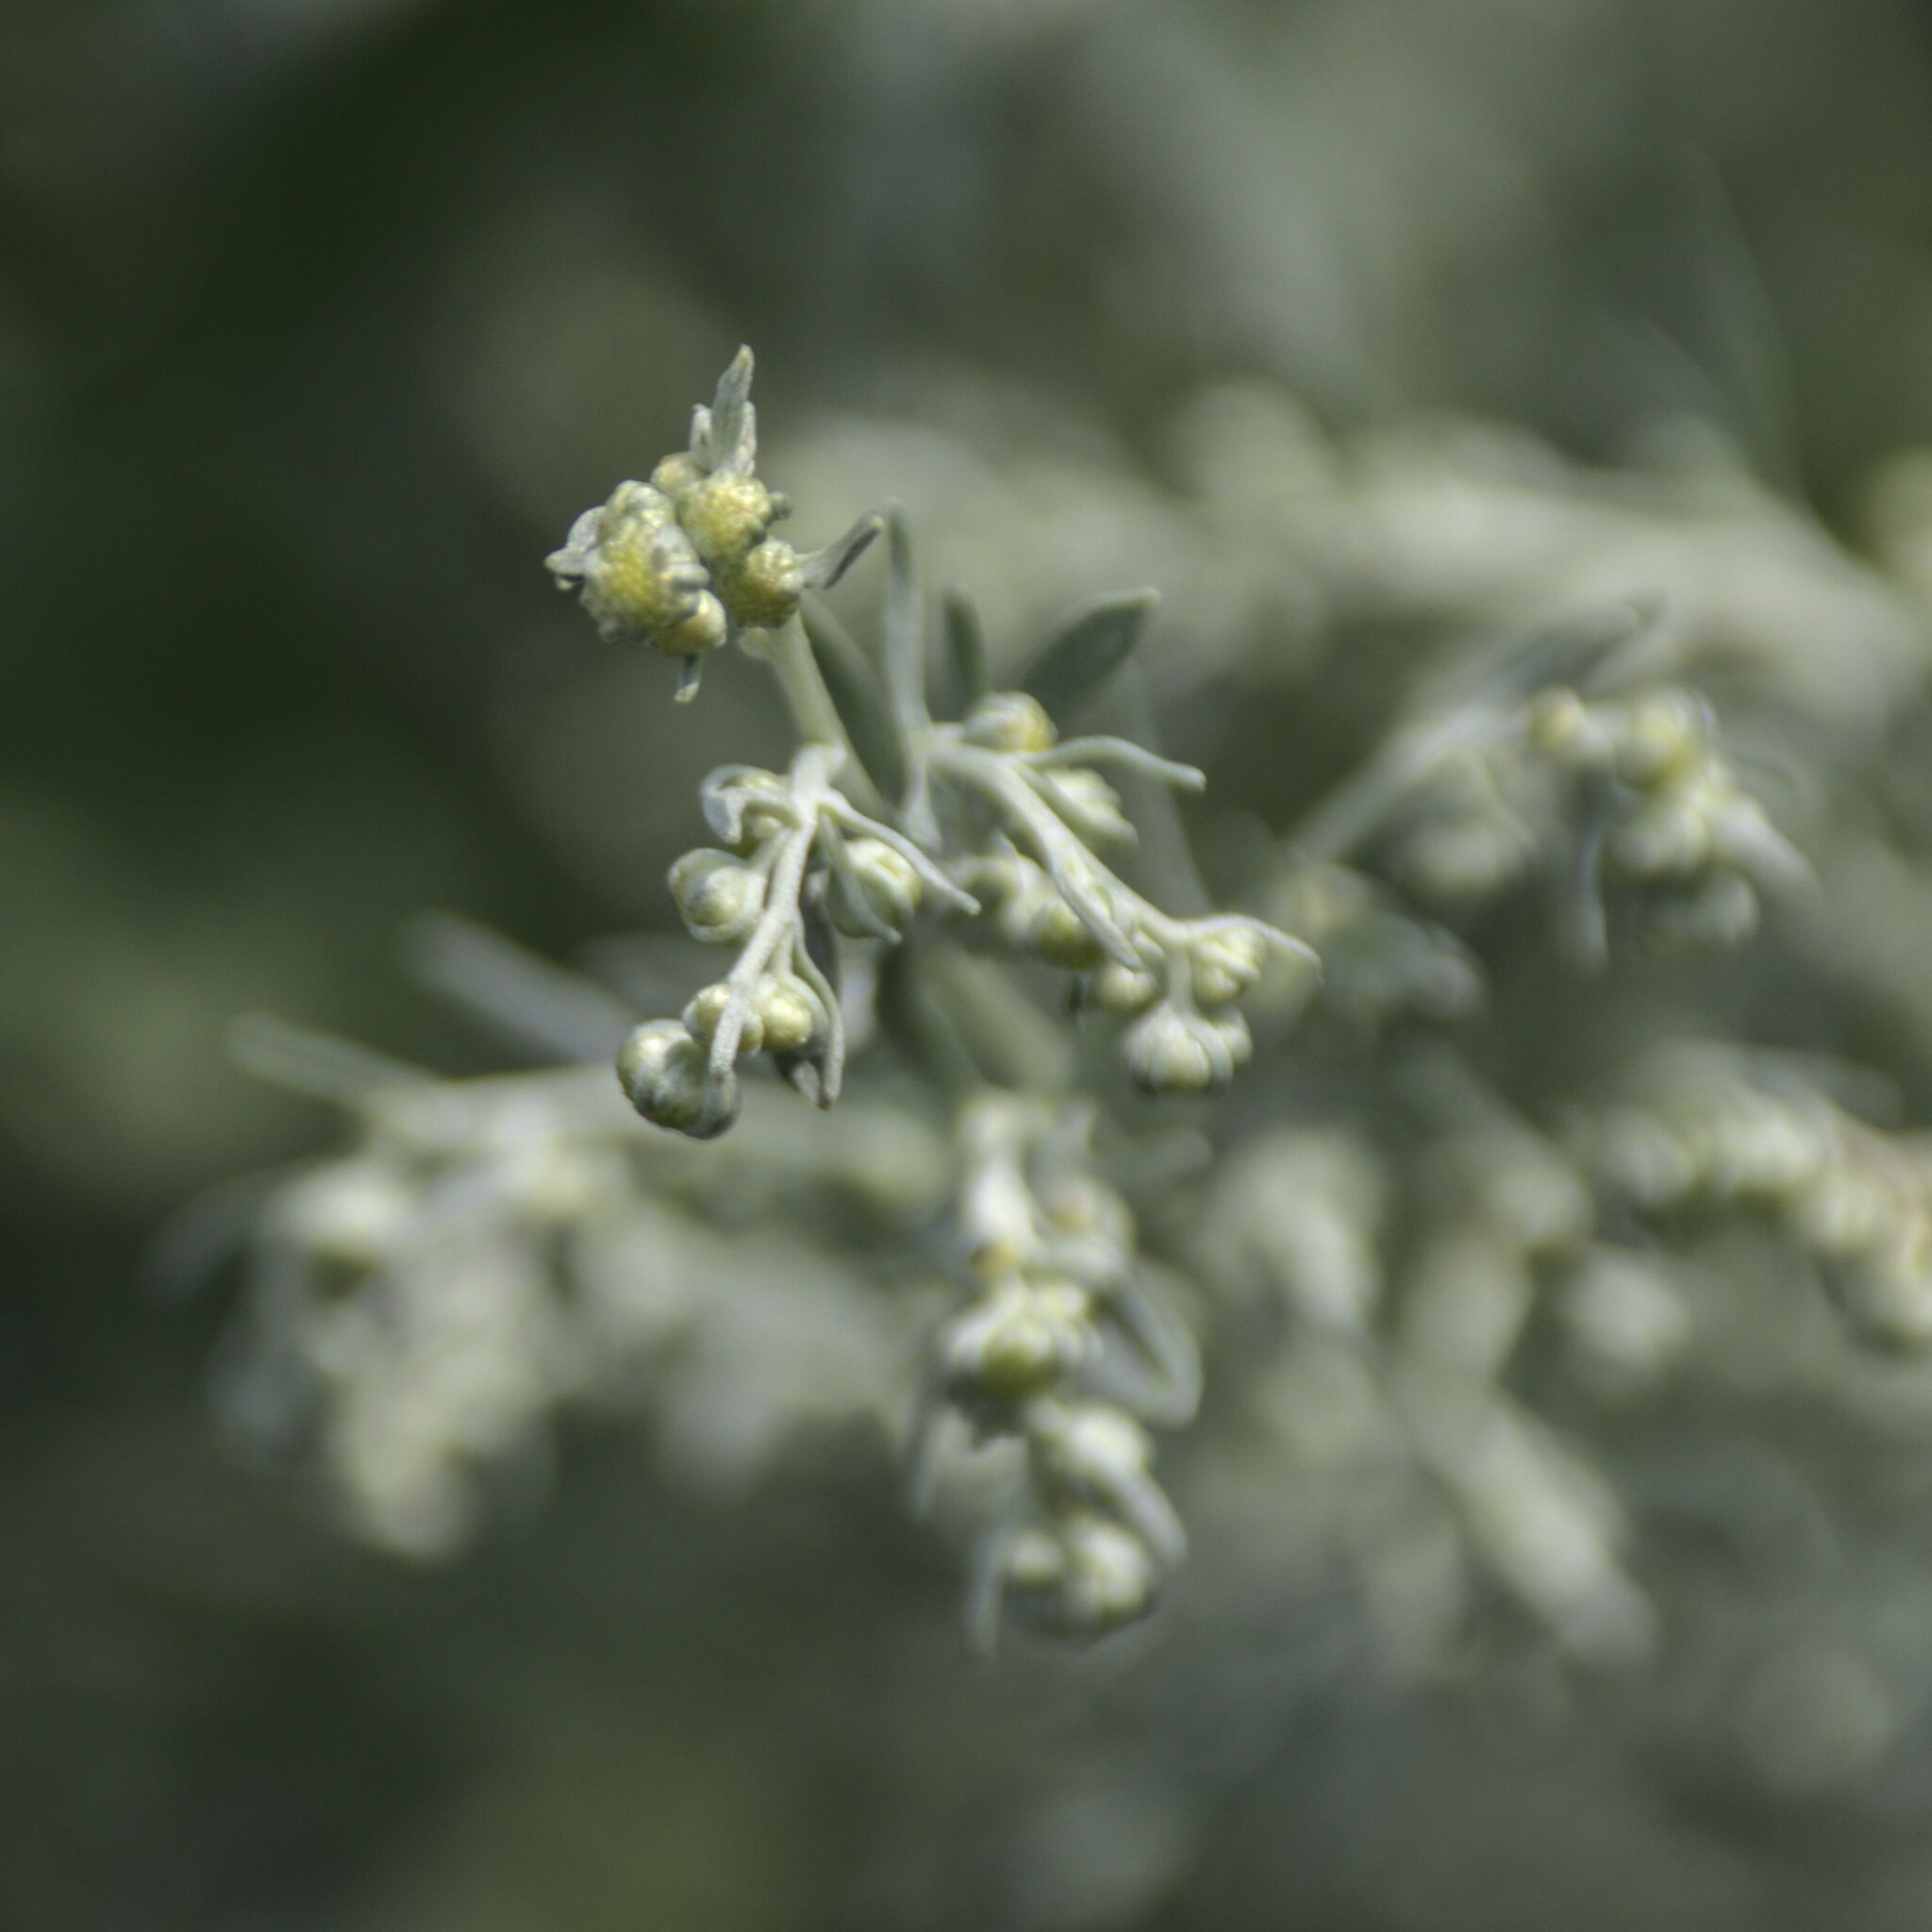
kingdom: Plantae
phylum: Tracheophyta
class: Magnoliopsida
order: Asterales
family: Asteraceae
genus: Artemisia
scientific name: Artemisia absinthium
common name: Wormwood
